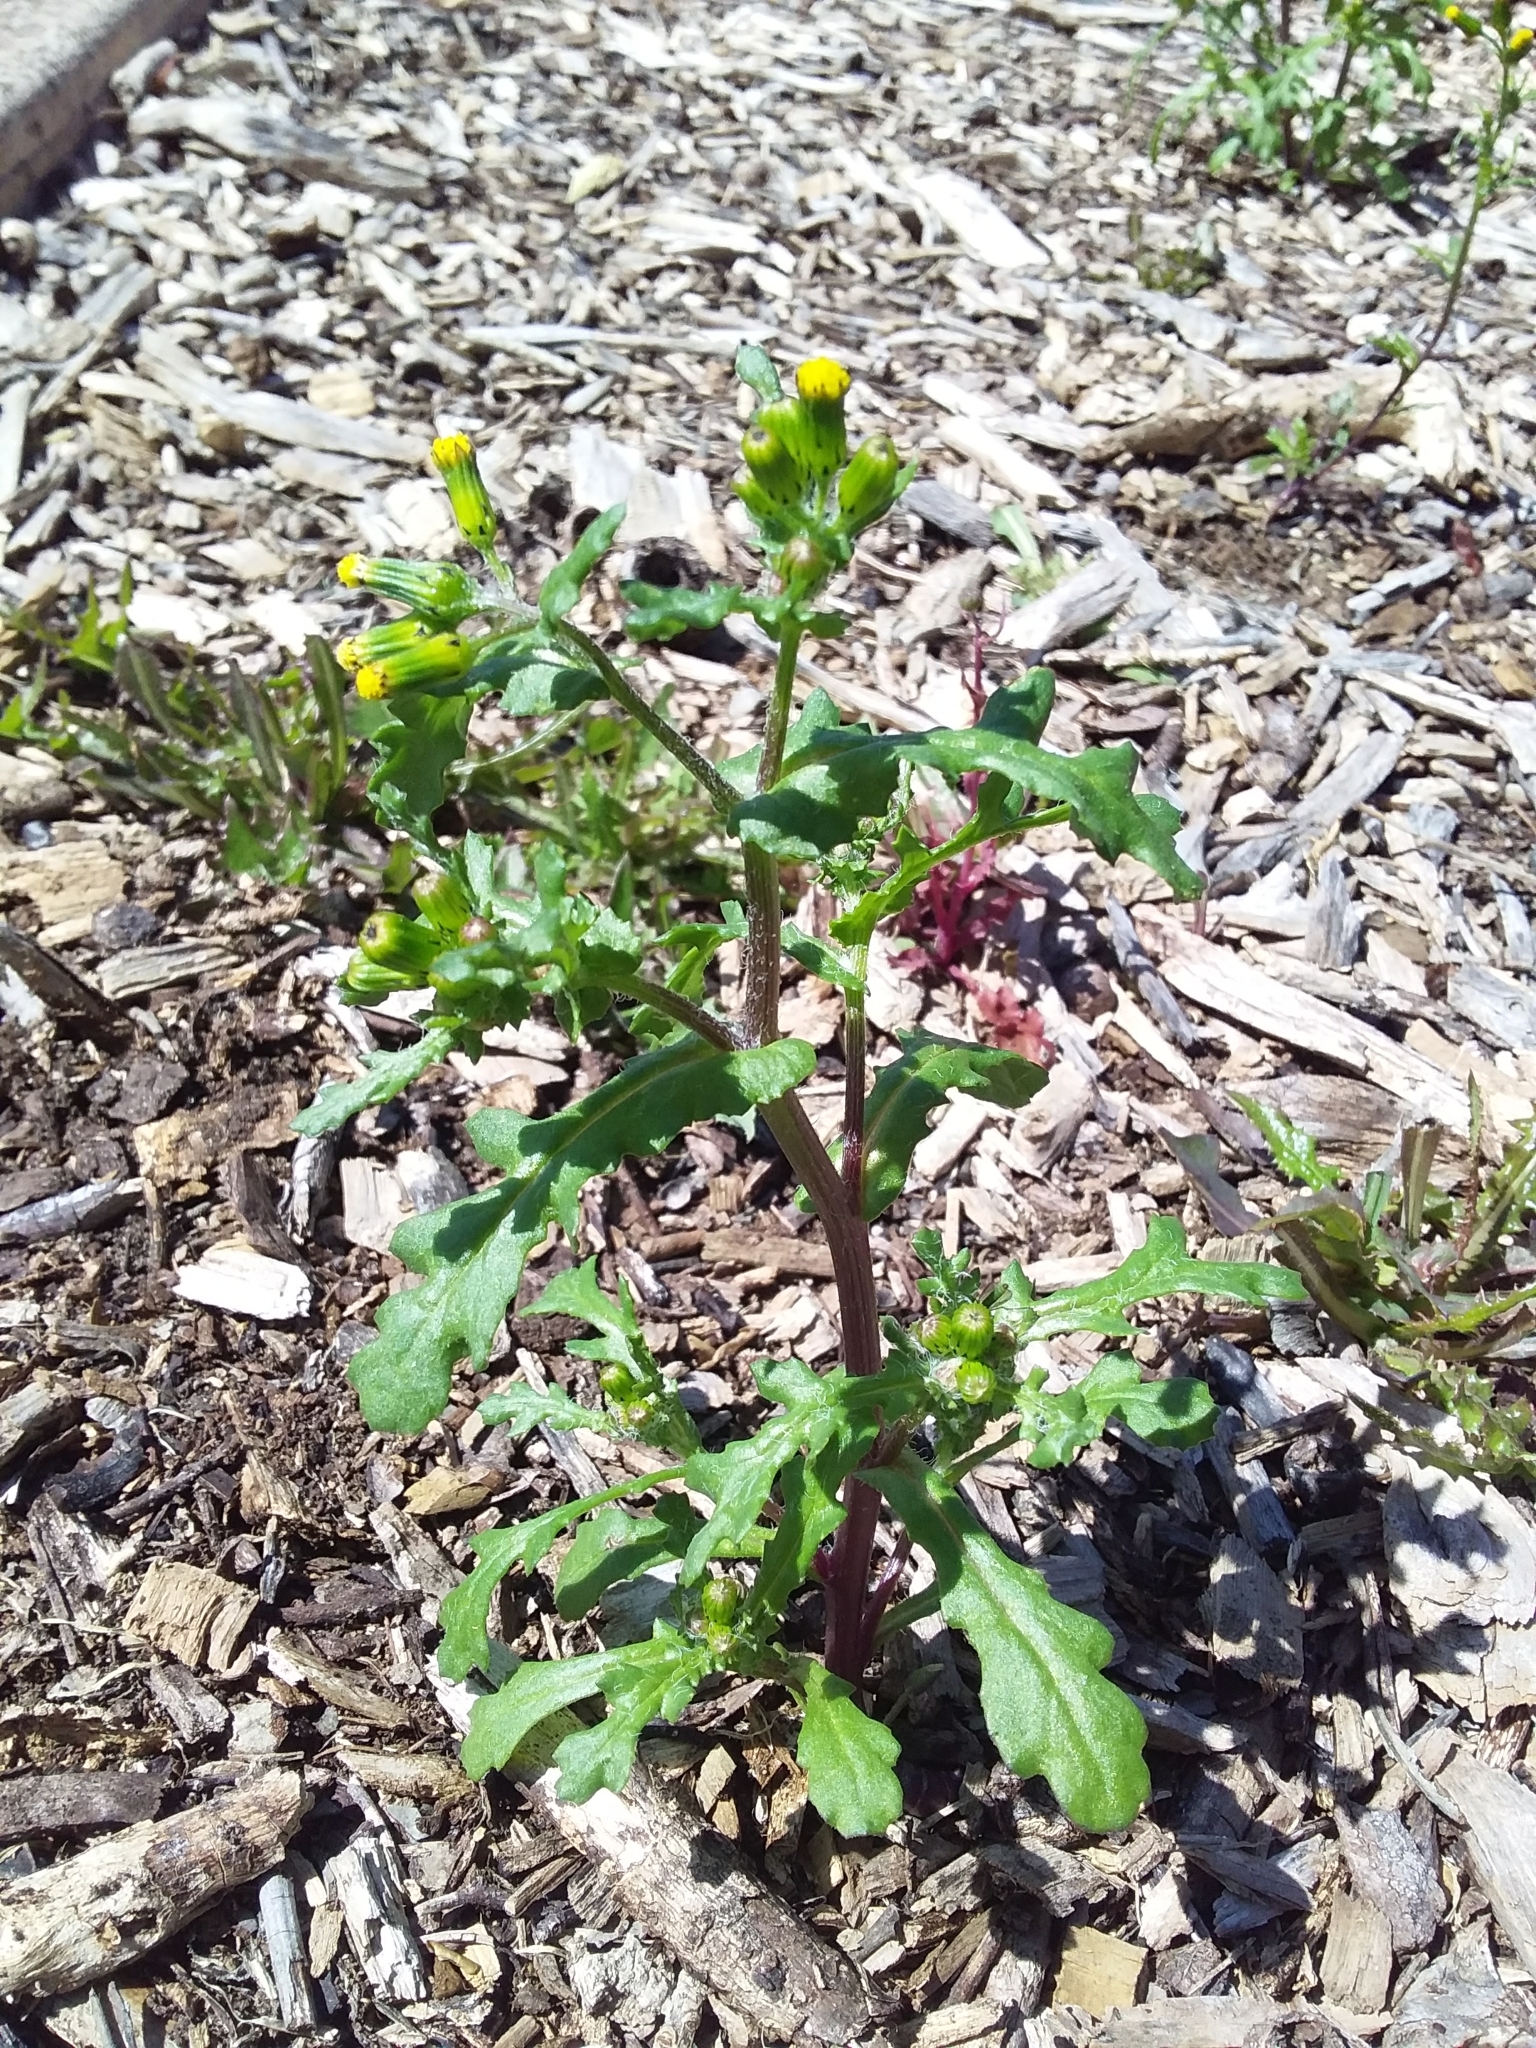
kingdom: Plantae
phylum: Tracheophyta
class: Magnoliopsida
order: Asterales
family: Asteraceae
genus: Senecio
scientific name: Senecio vulgaris
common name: Old-man-in-the-spring
